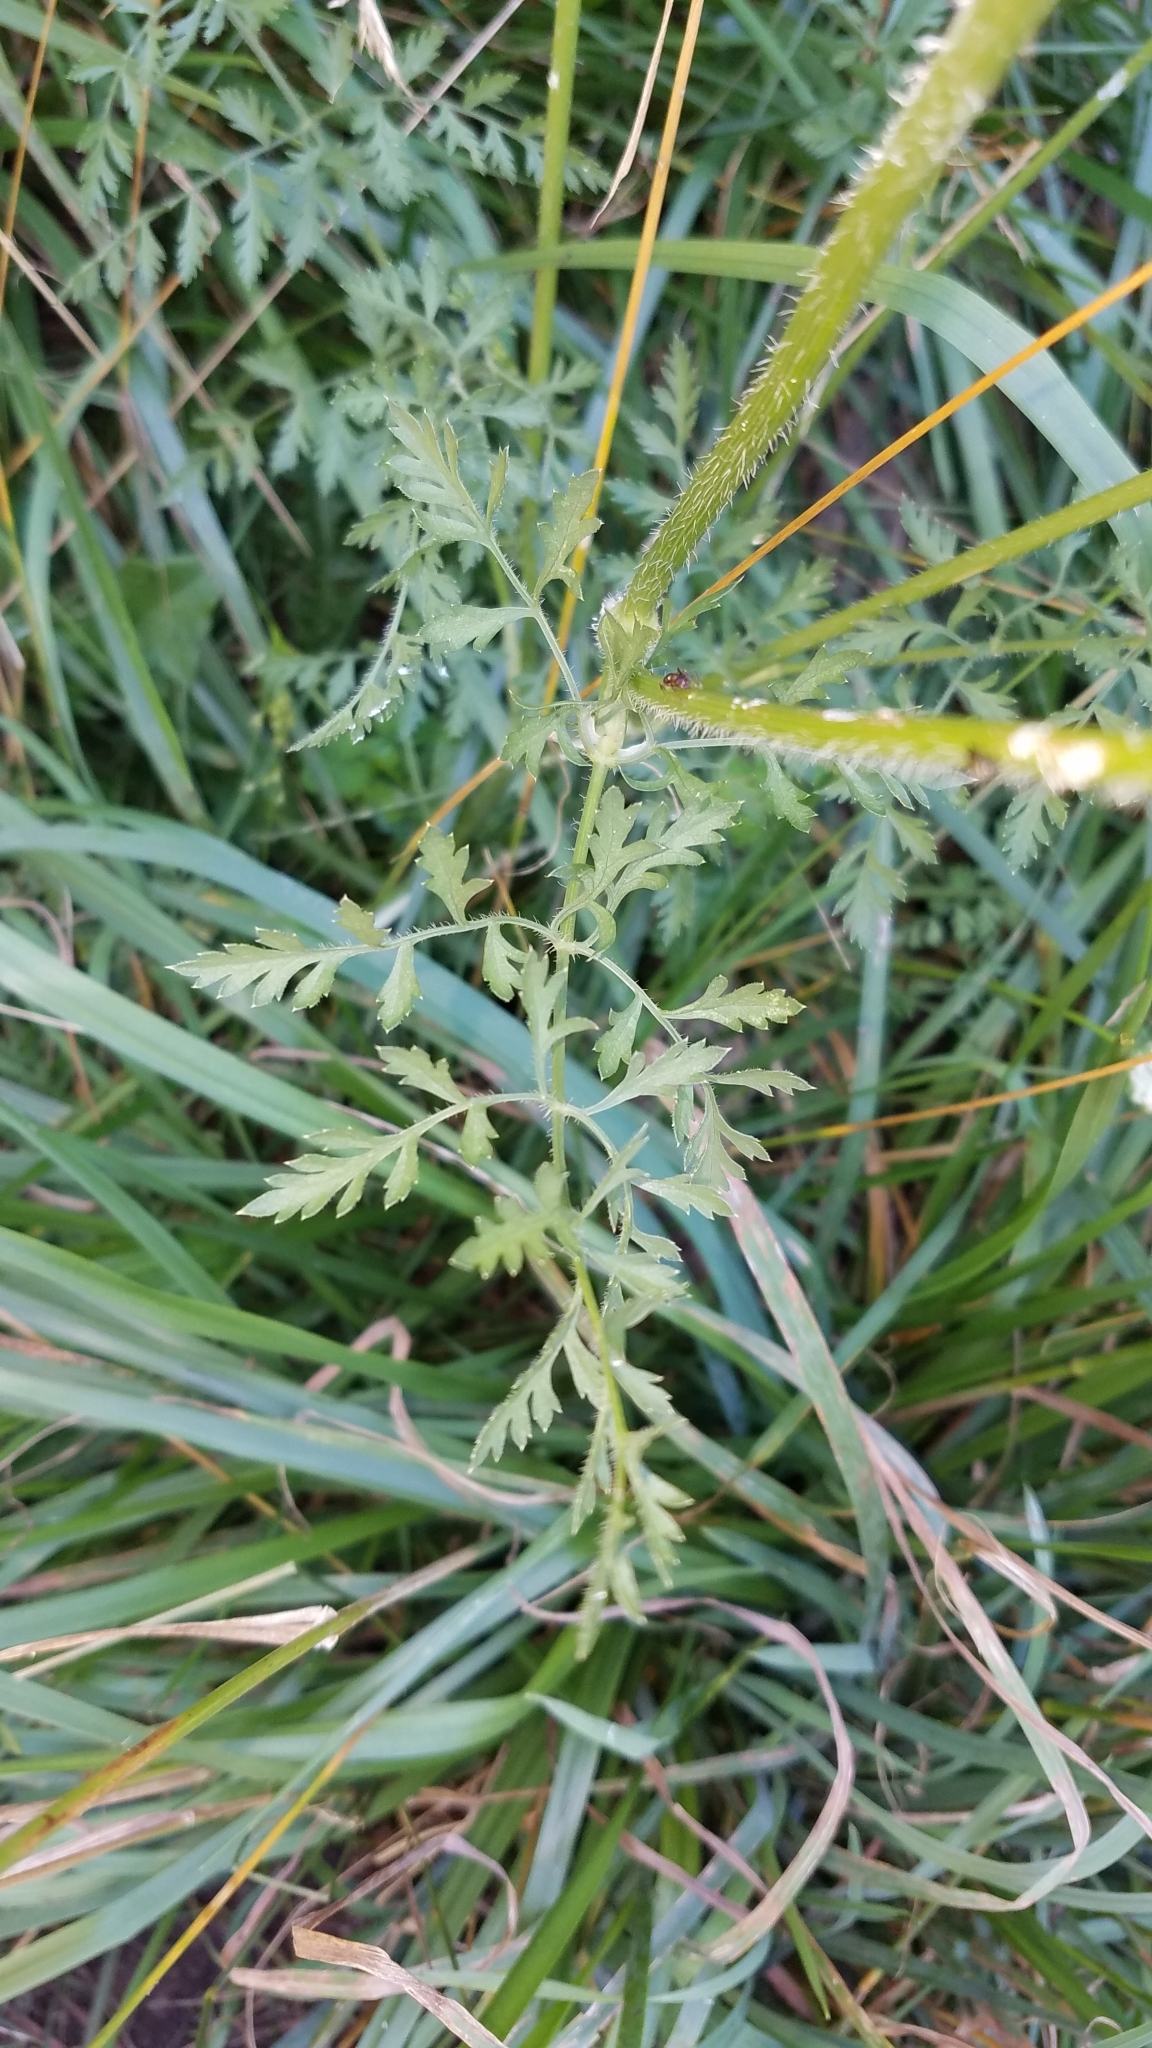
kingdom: Plantae
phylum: Tracheophyta
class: Magnoliopsida
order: Apiales
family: Apiaceae
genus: Daucus
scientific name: Daucus carota
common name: Wild carrot
